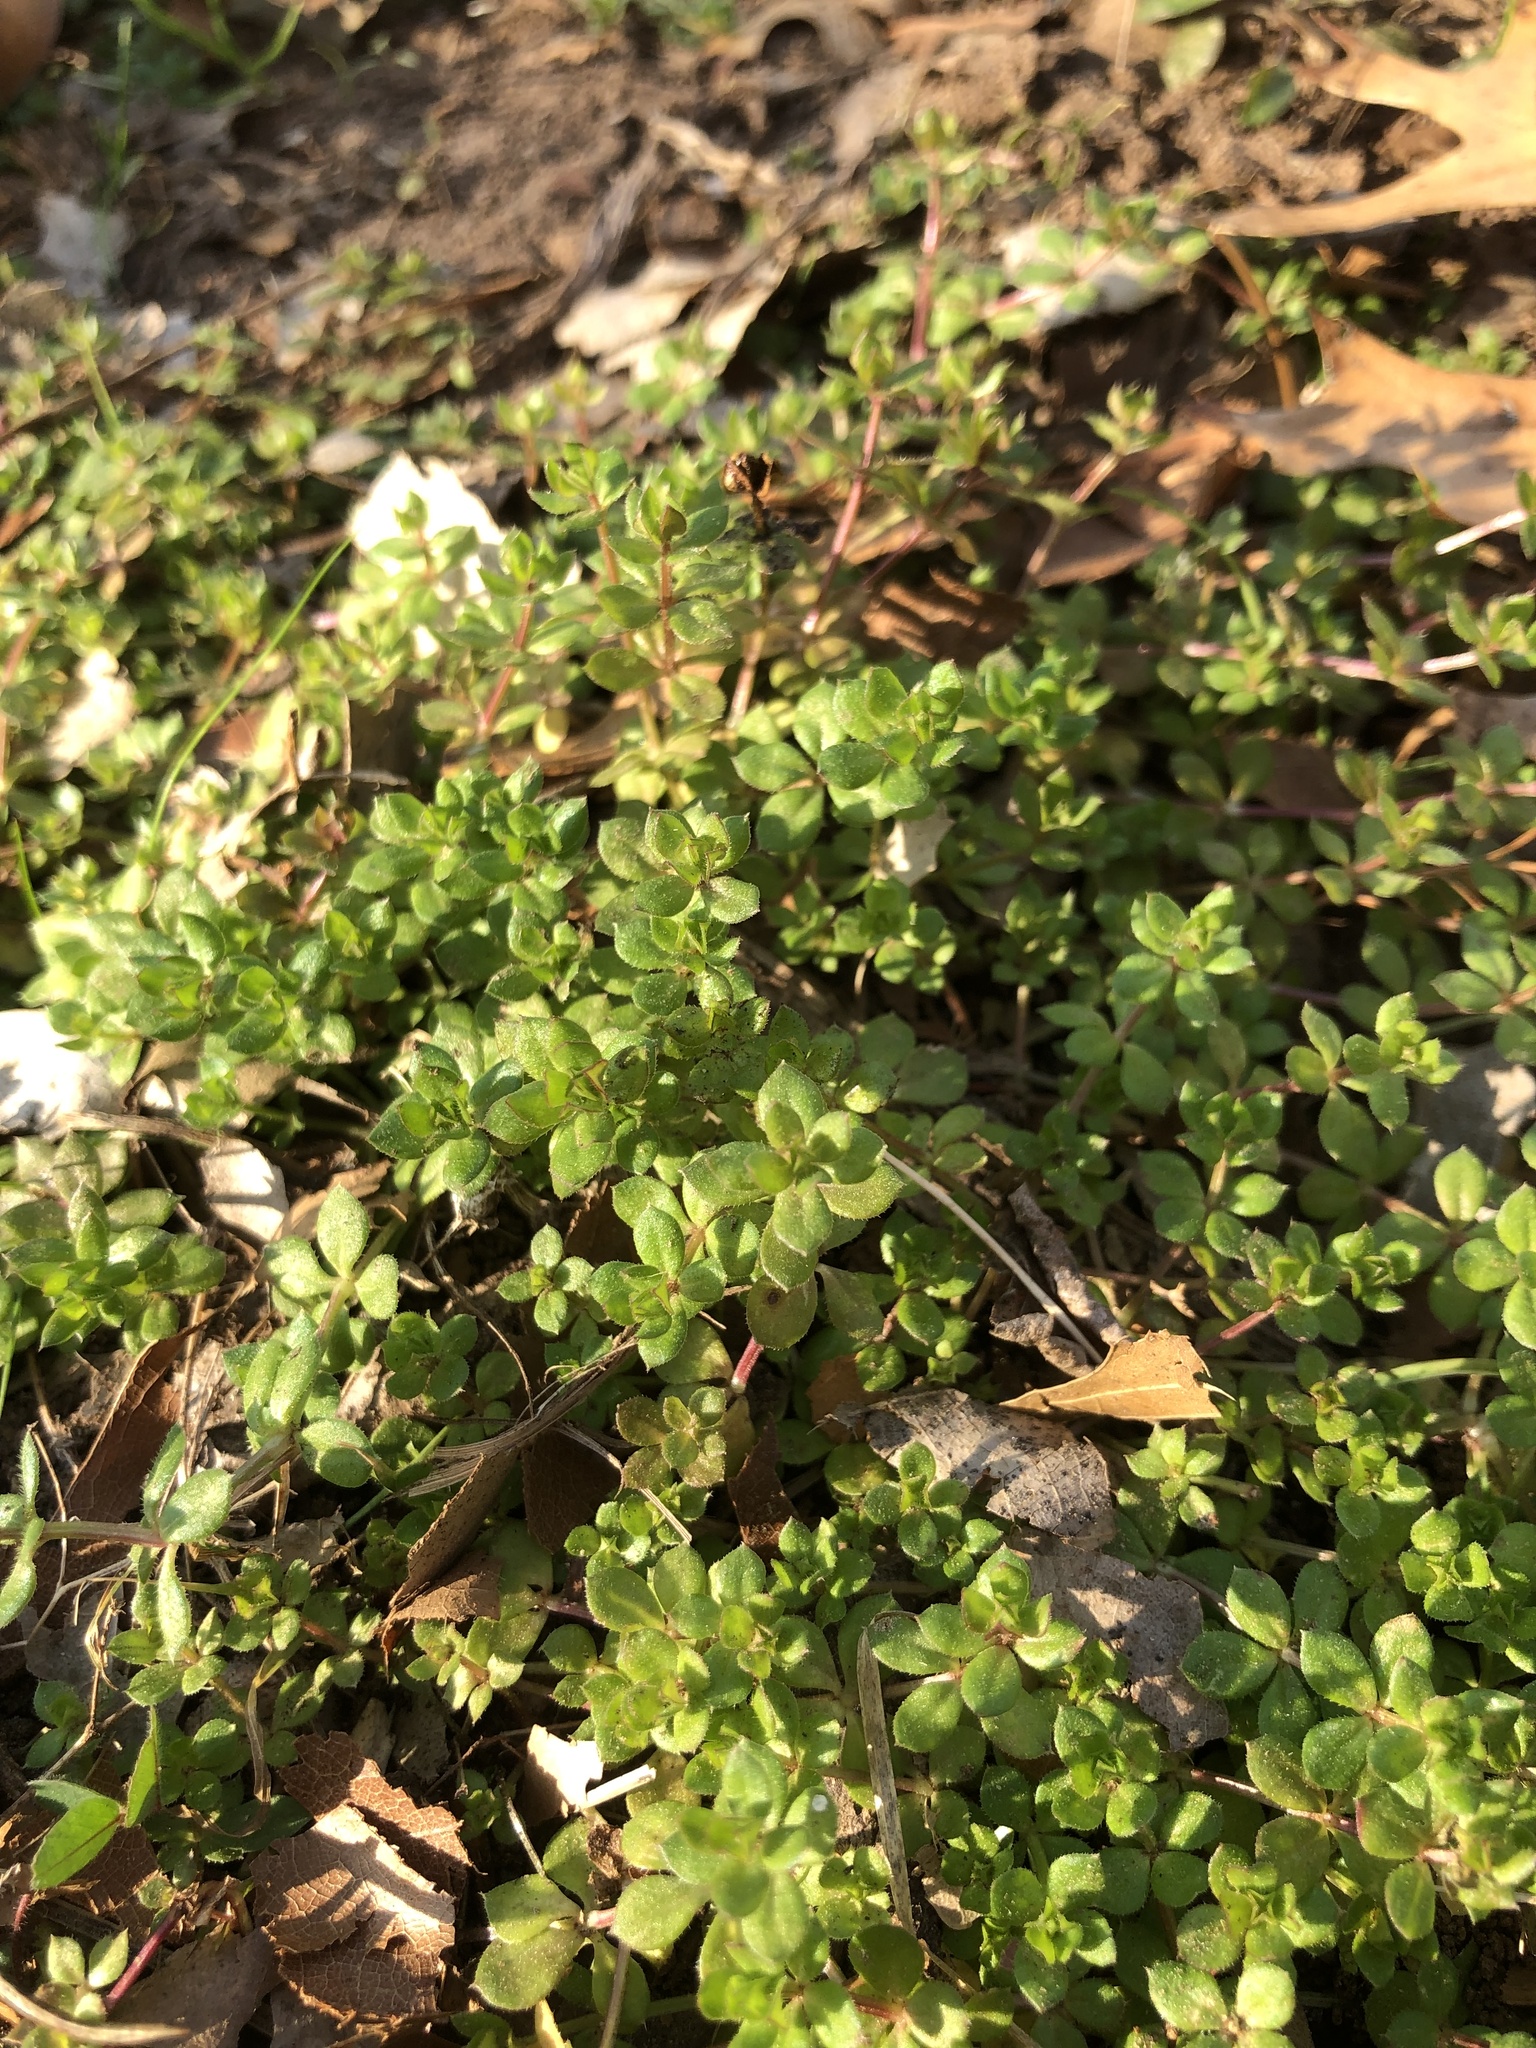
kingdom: Plantae
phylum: Tracheophyta
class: Magnoliopsida
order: Gentianales
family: Rubiaceae
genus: Sherardia
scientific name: Sherardia arvensis
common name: Field madder
